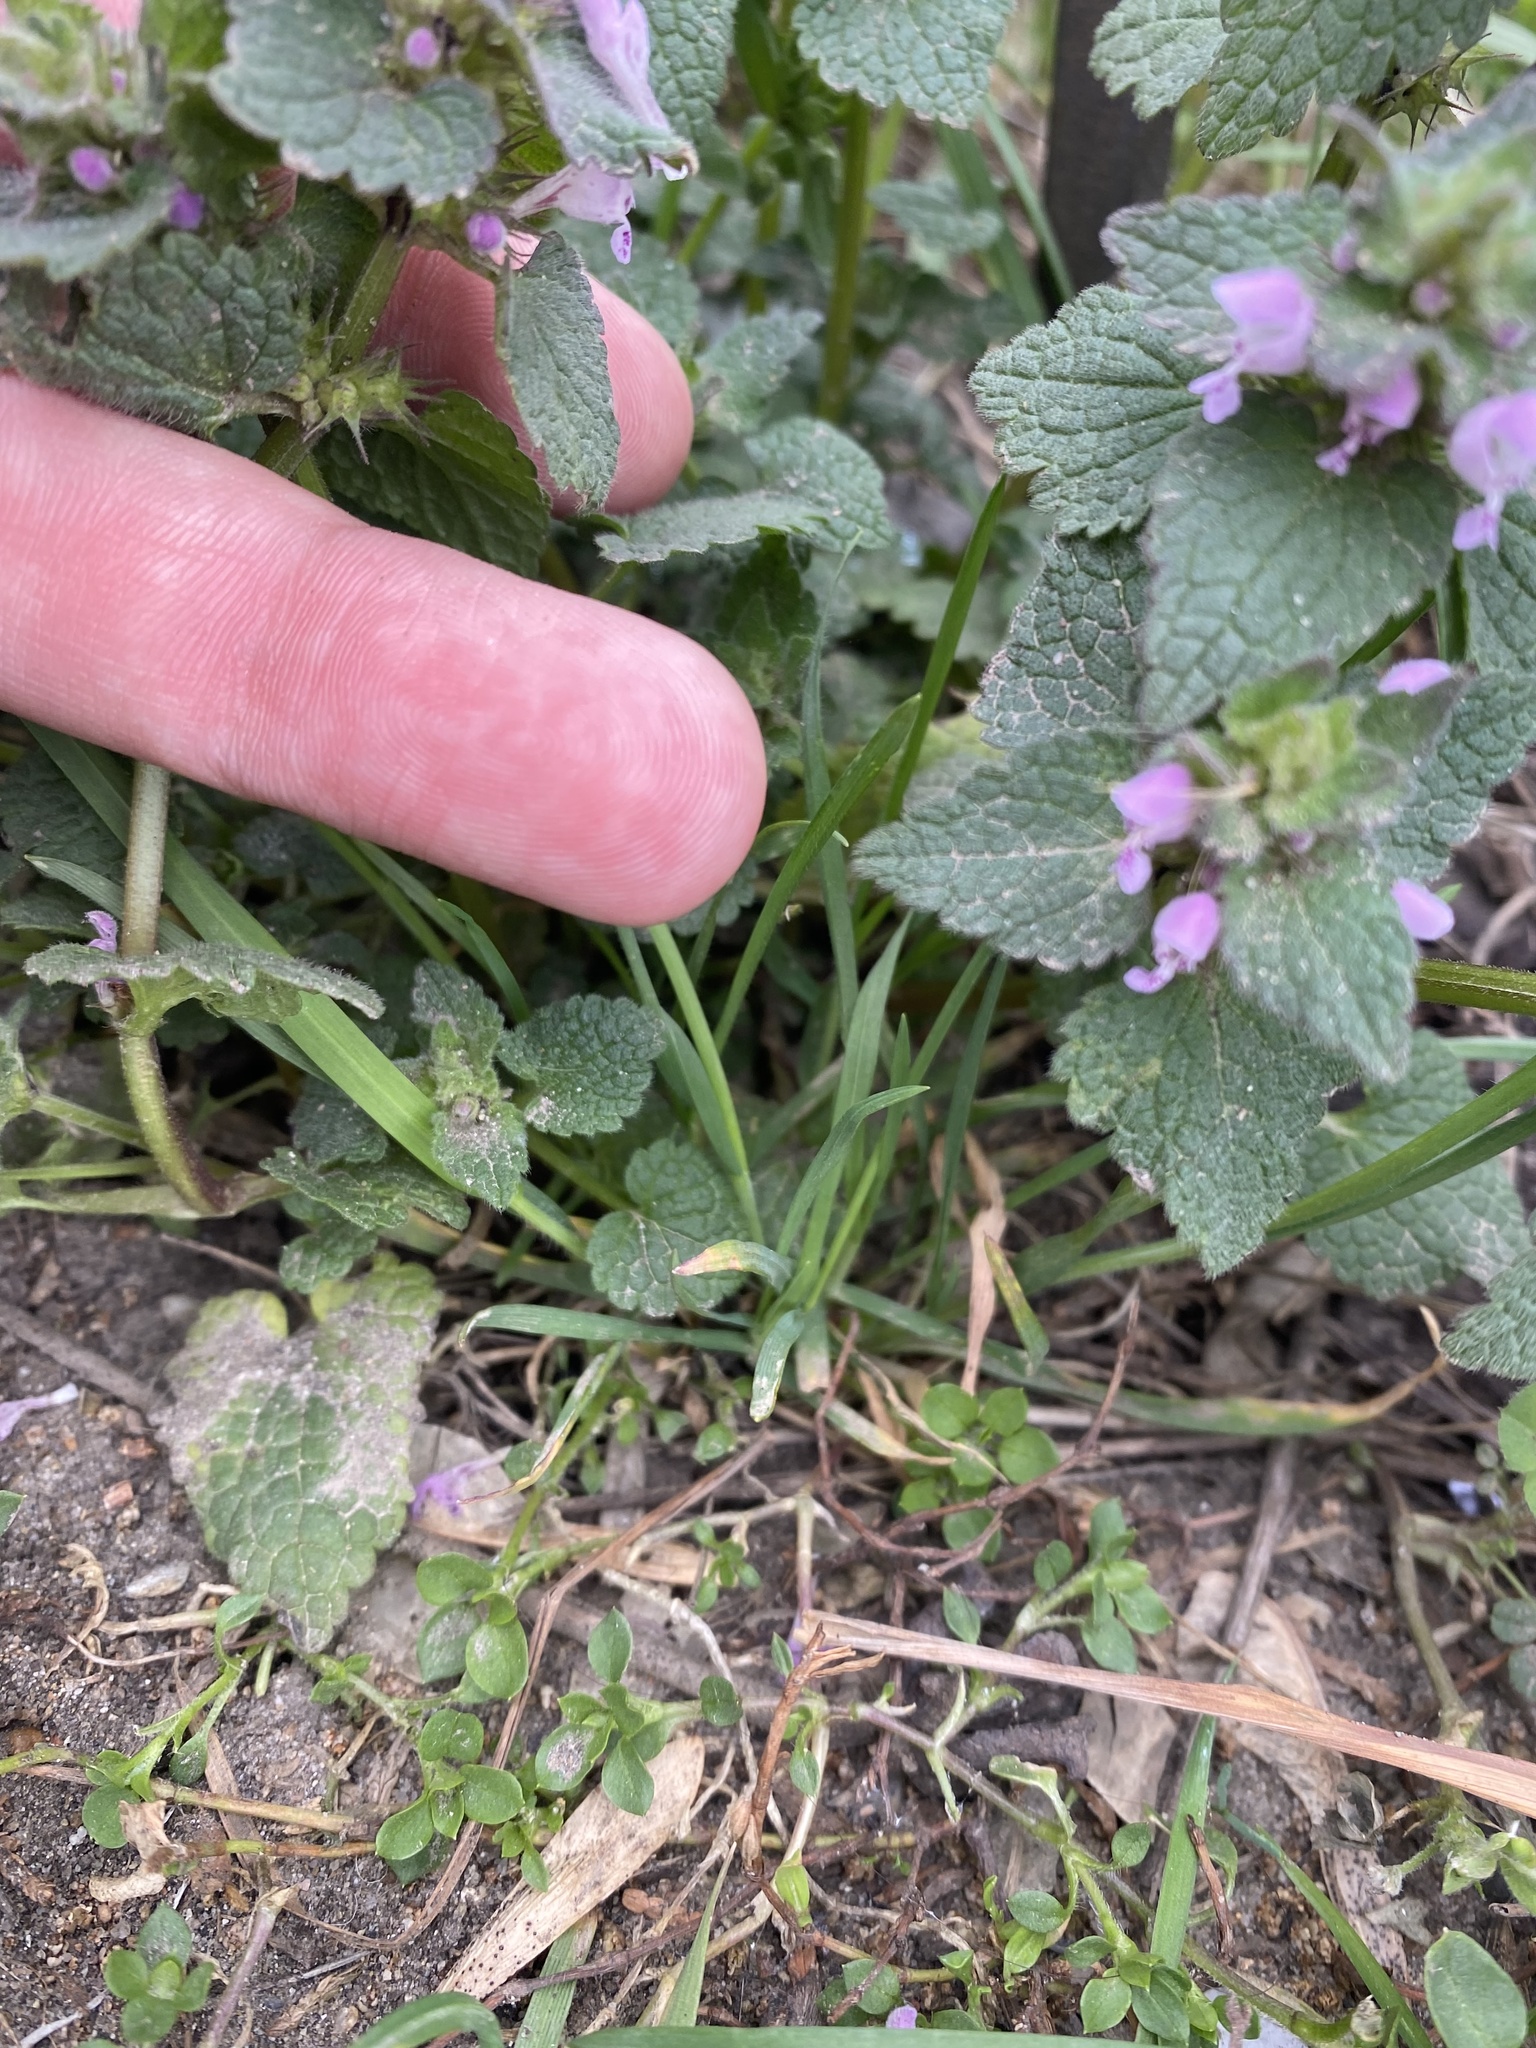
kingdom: Plantae
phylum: Tracheophyta
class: Magnoliopsida
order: Lamiales
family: Lamiaceae
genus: Lamium
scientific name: Lamium purpureum
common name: Red dead-nettle
